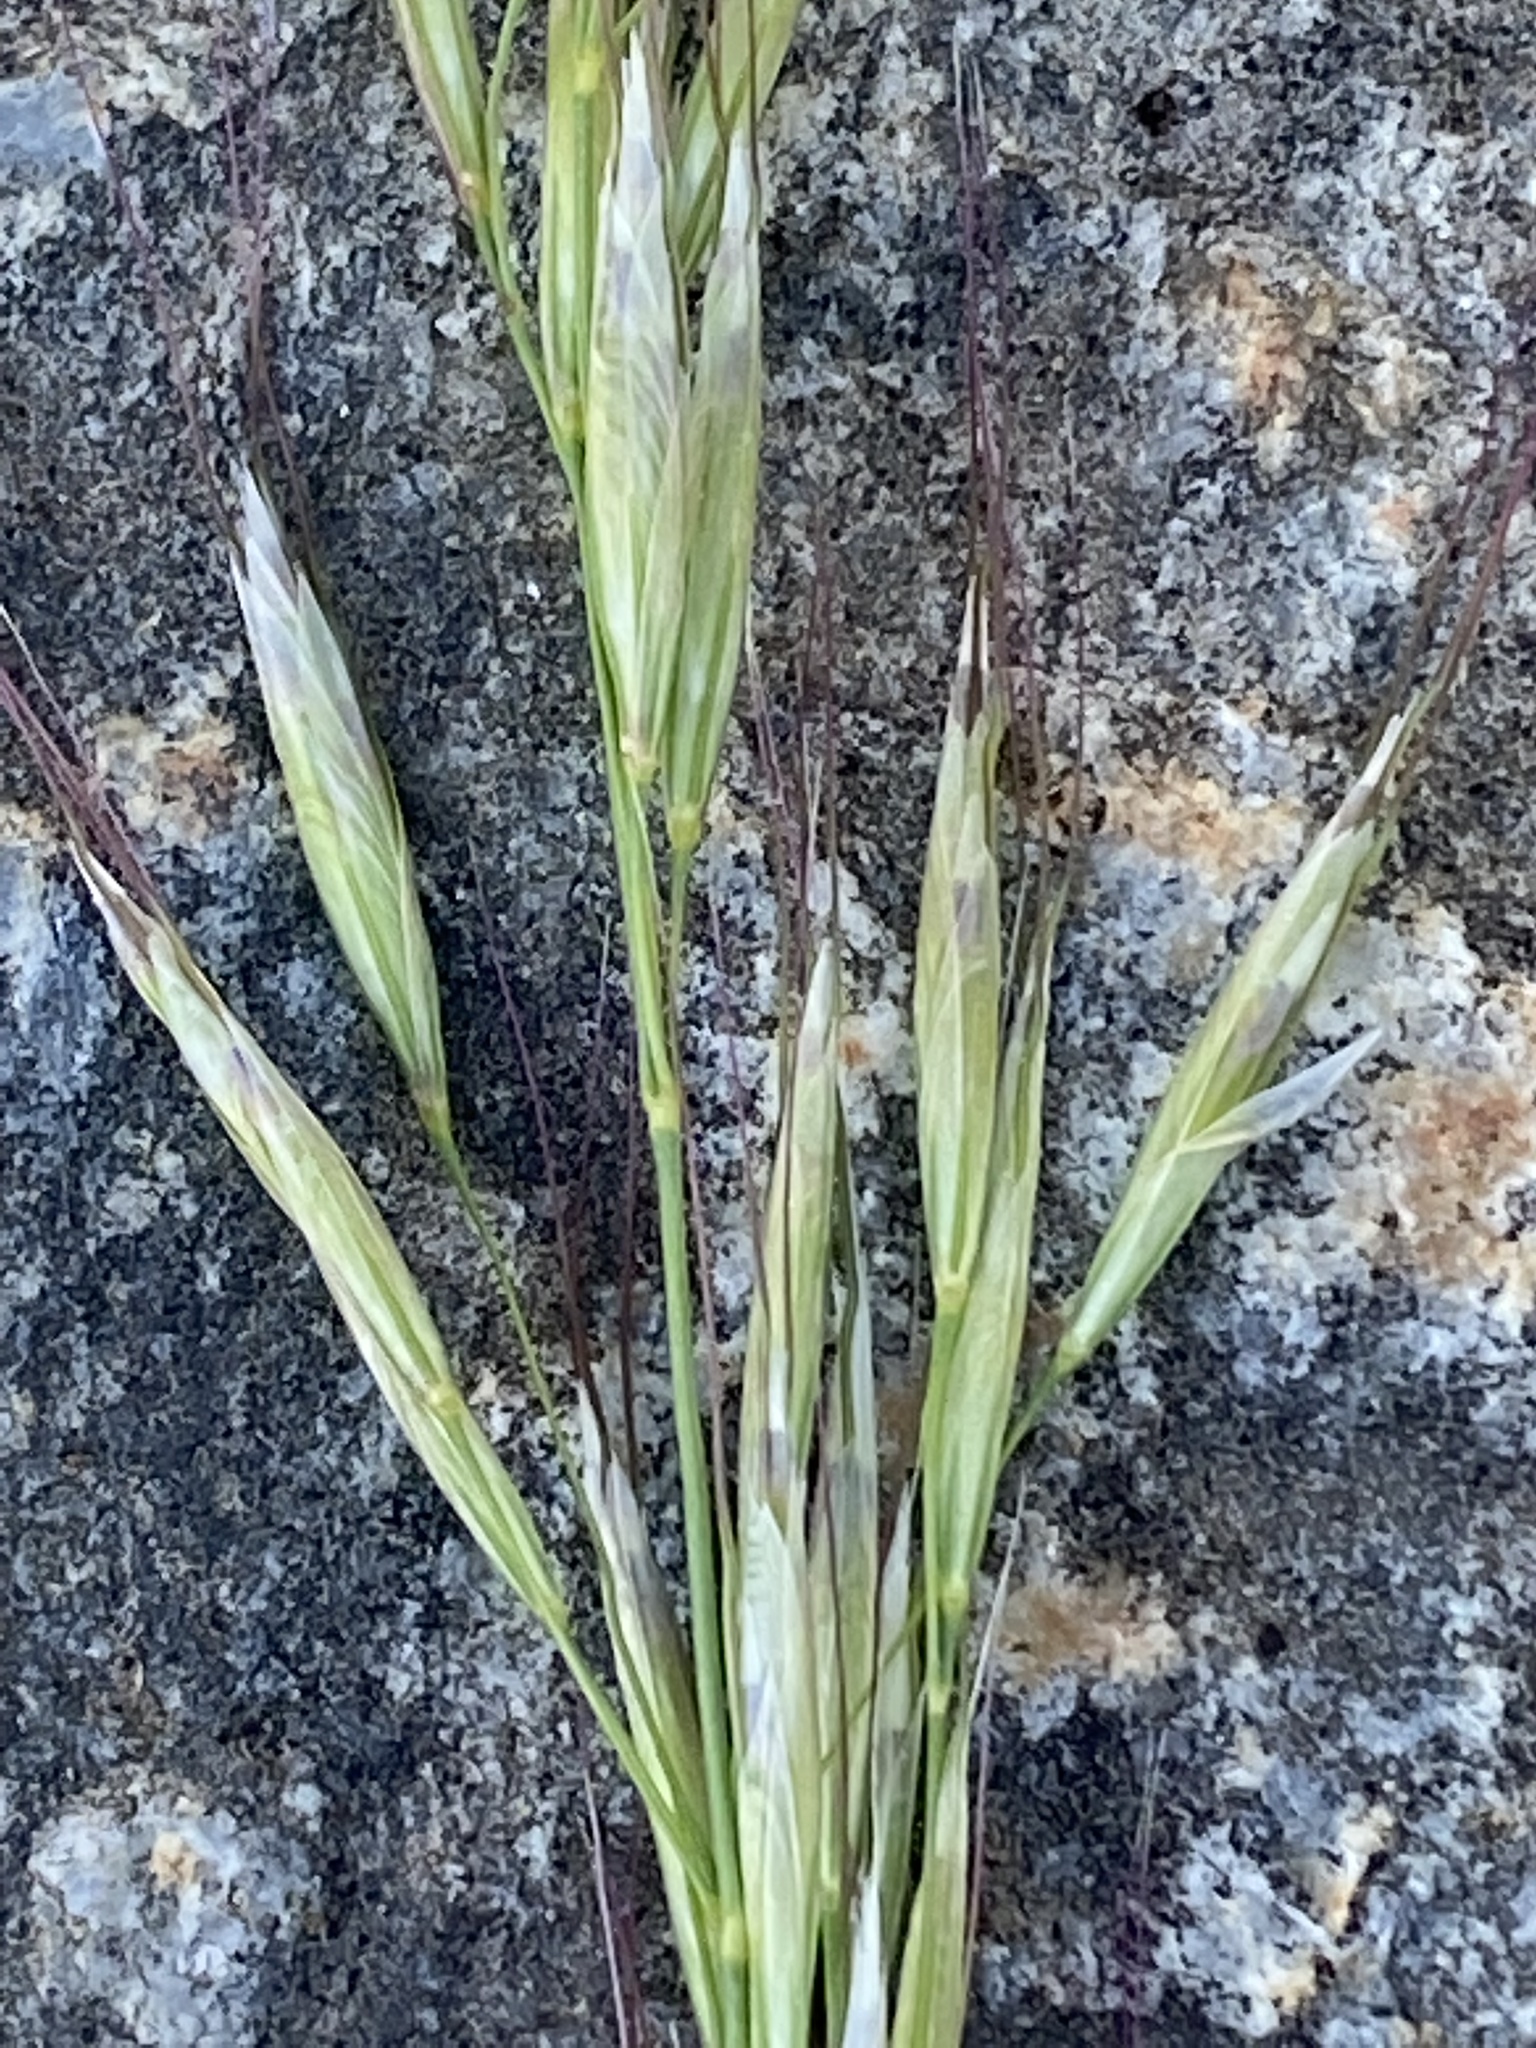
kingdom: Plantae
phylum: Tracheophyta
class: Liliopsida
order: Poales
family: Poaceae
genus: Bromus
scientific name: Bromus erectus
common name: Erect brome
